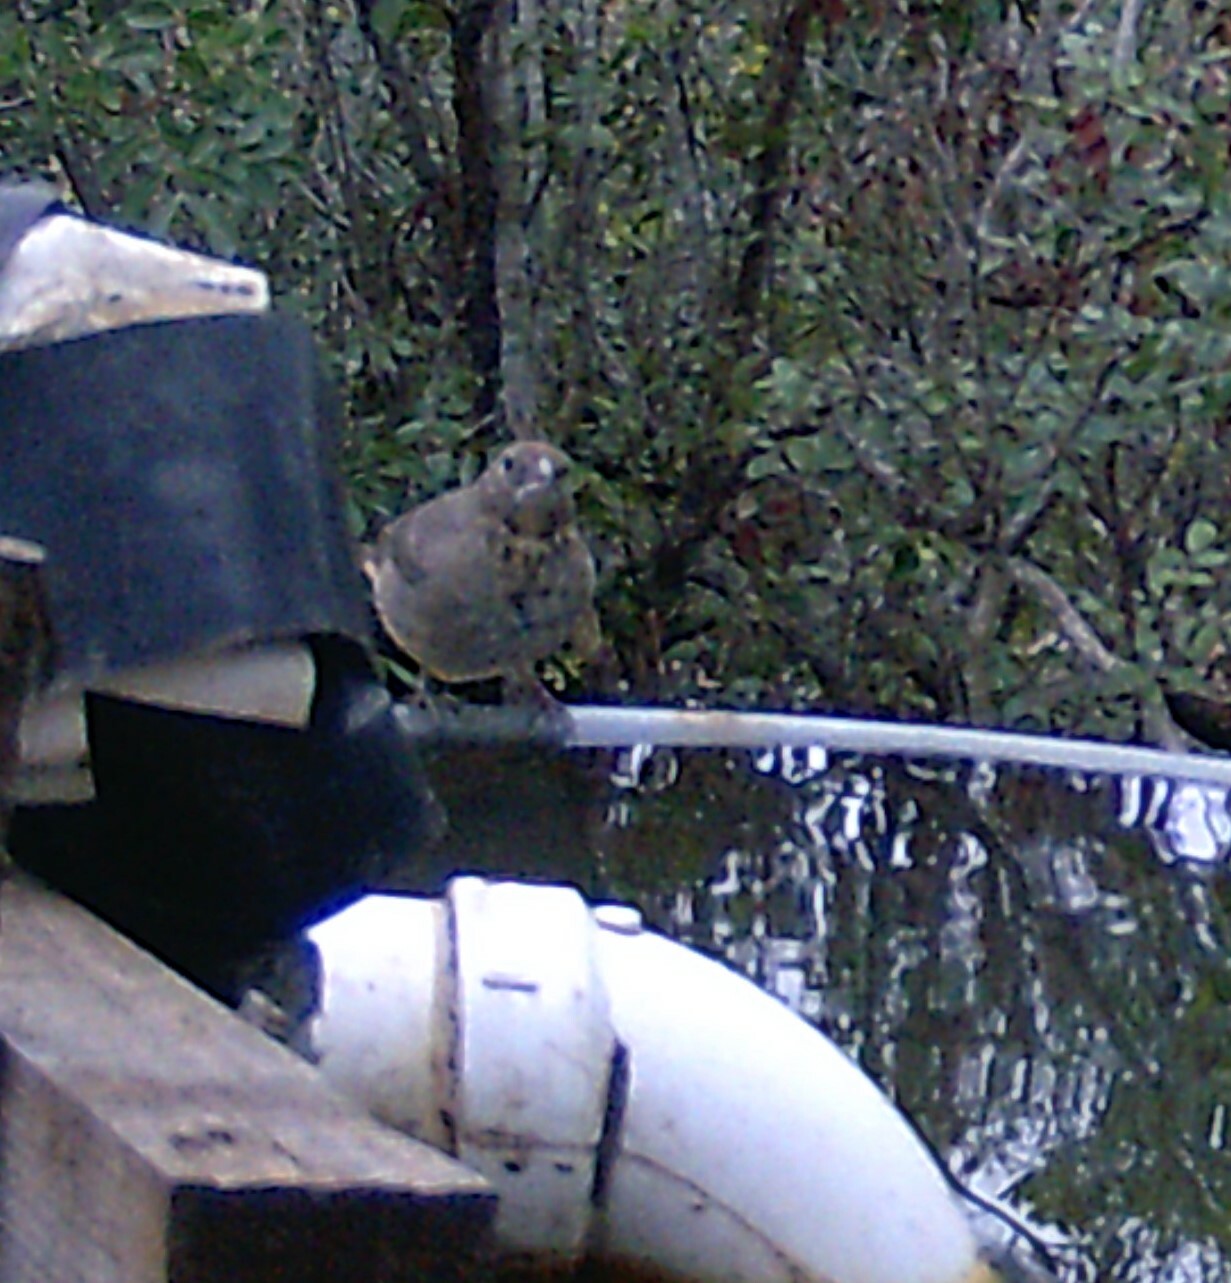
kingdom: Animalia
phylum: Chordata
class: Aves
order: Passeriformes
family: Passerellidae
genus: Melozone
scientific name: Melozone fusca
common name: Canyon towhee
